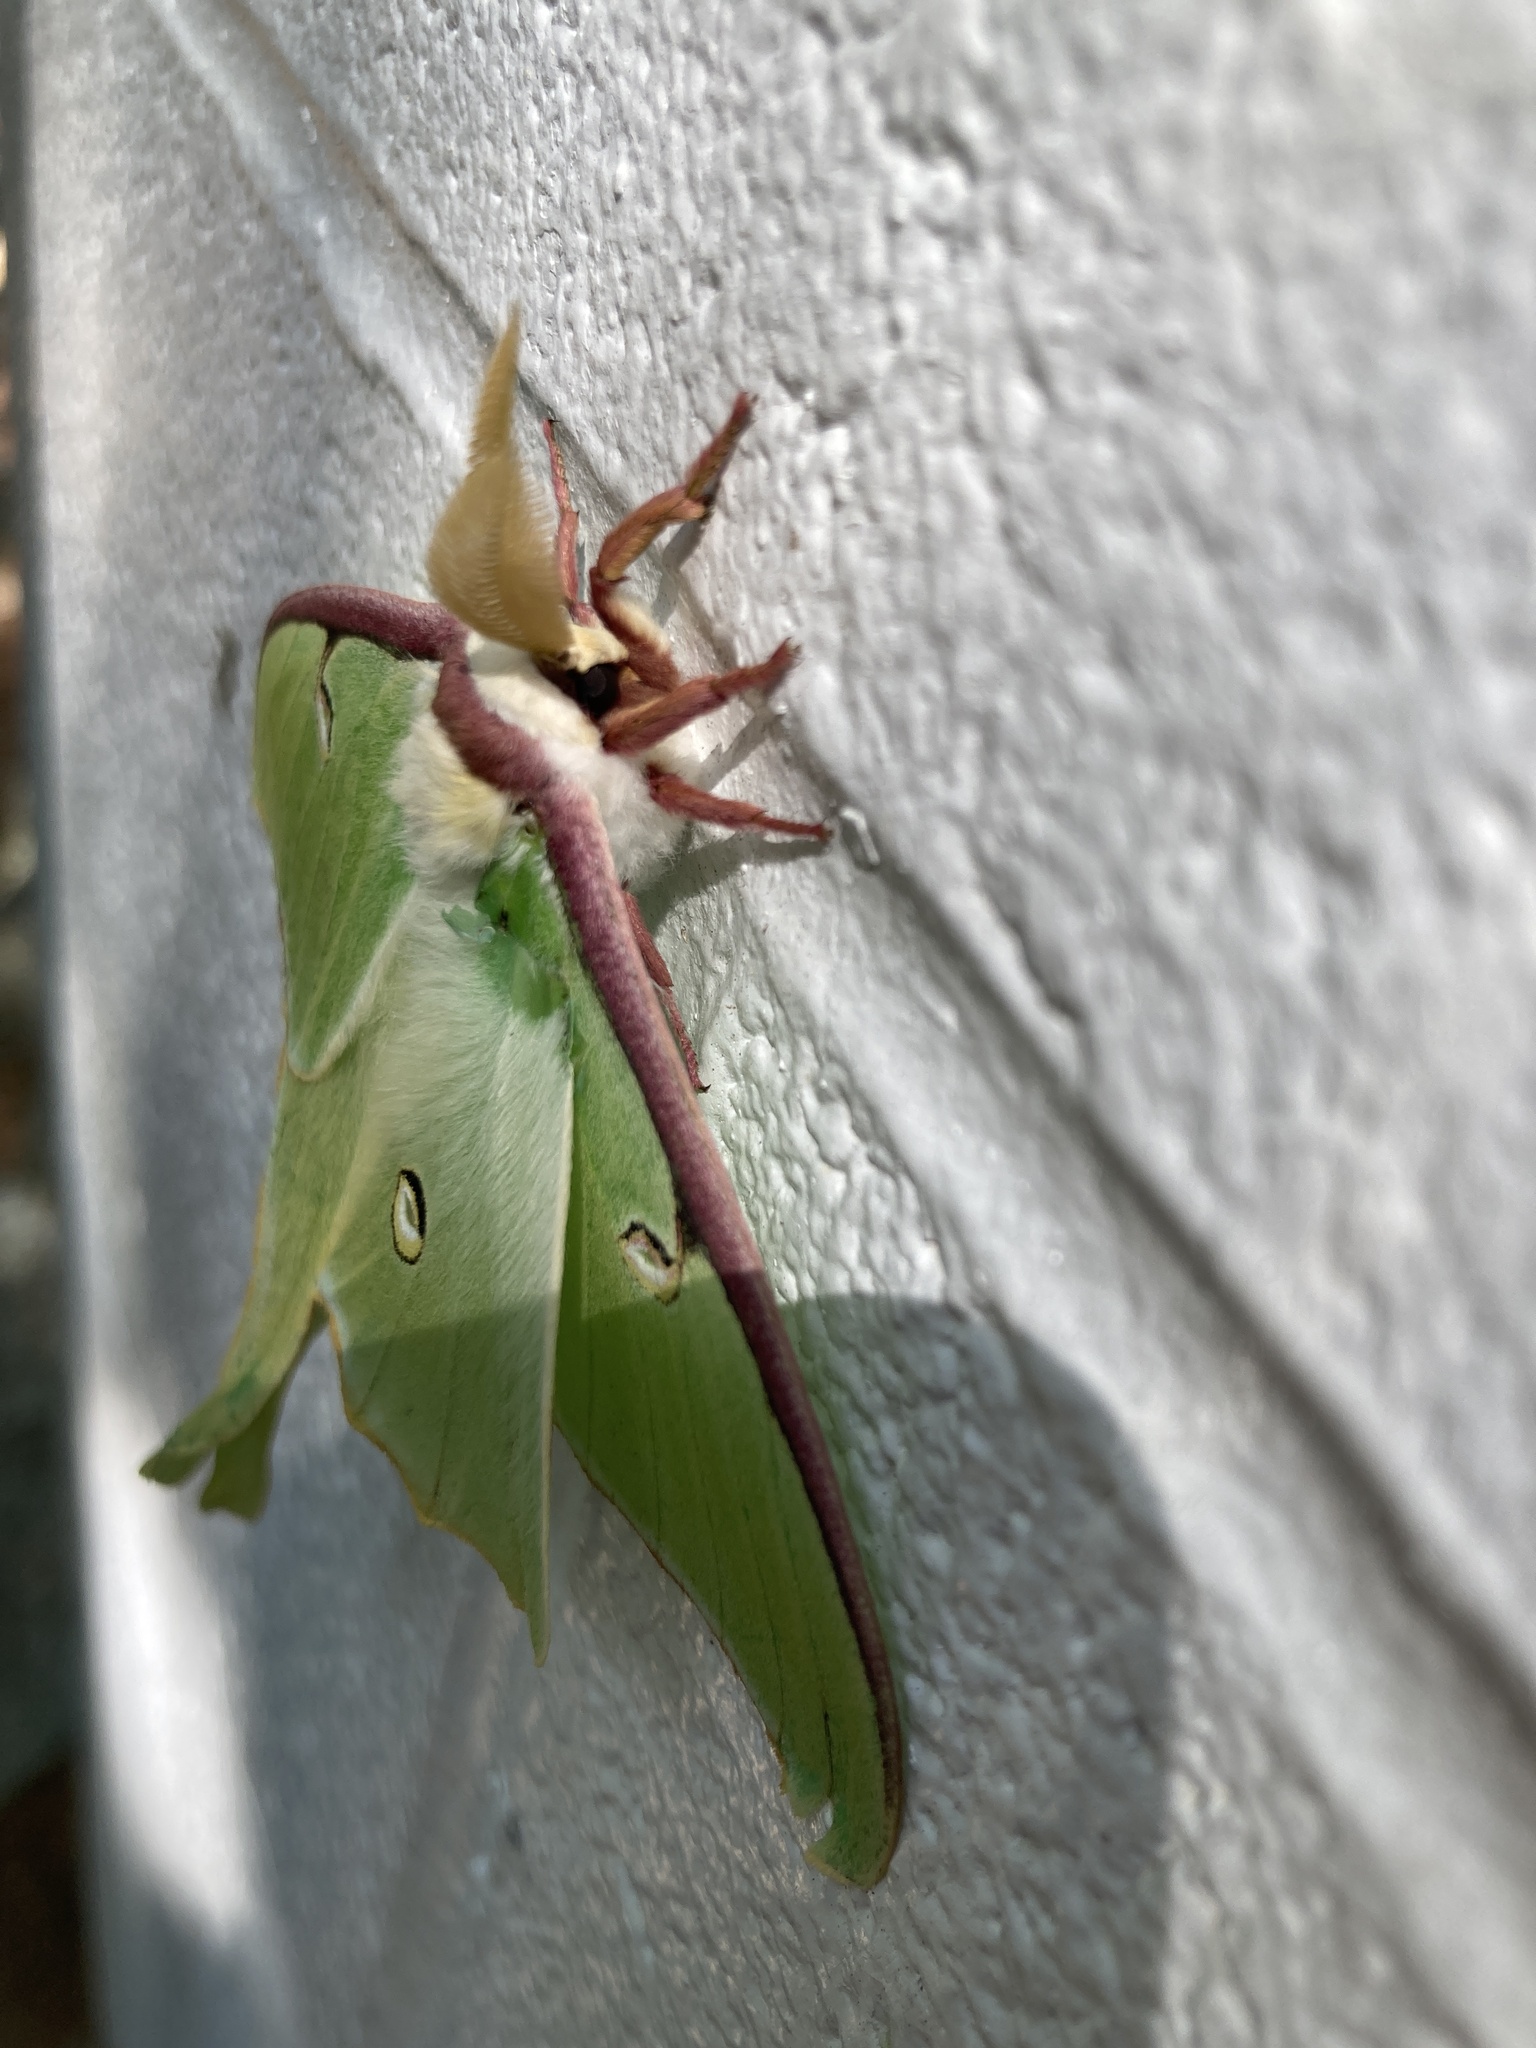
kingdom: Animalia
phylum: Arthropoda
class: Insecta
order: Lepidoptera
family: Saturniidae
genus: Actias
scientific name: Actias luna
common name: Luna moth
